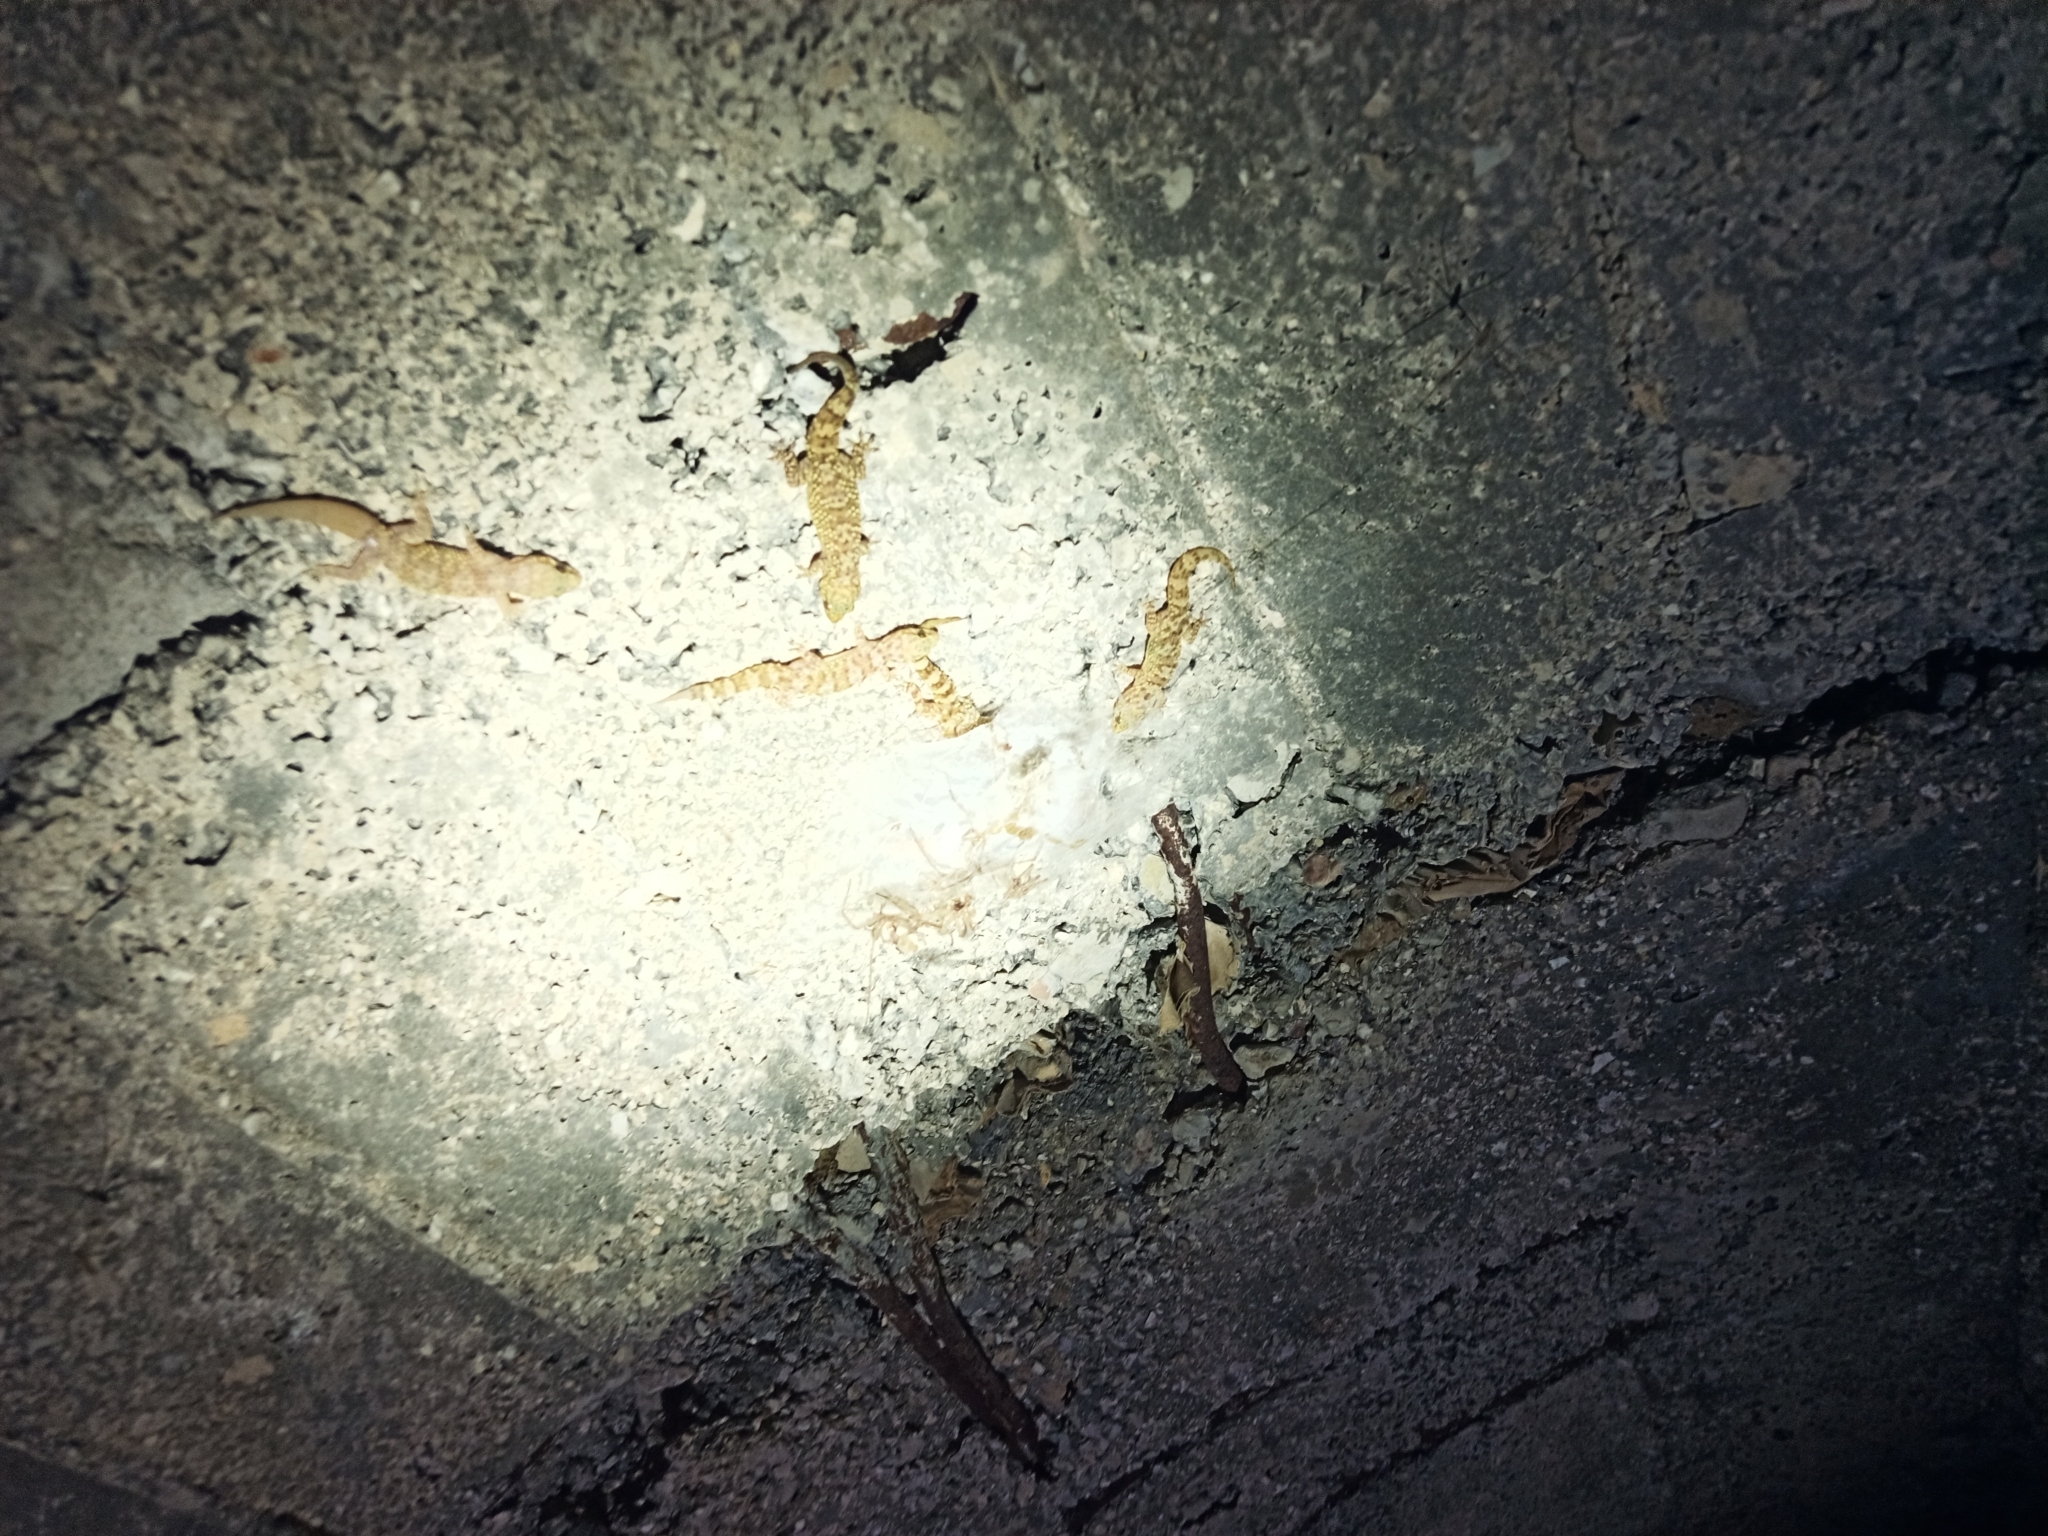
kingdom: Animalia
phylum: Chordata
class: Squamata
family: Gekkonidae
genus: Hemidactylus
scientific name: Hemidactylus turcicus
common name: Turkish gecko
